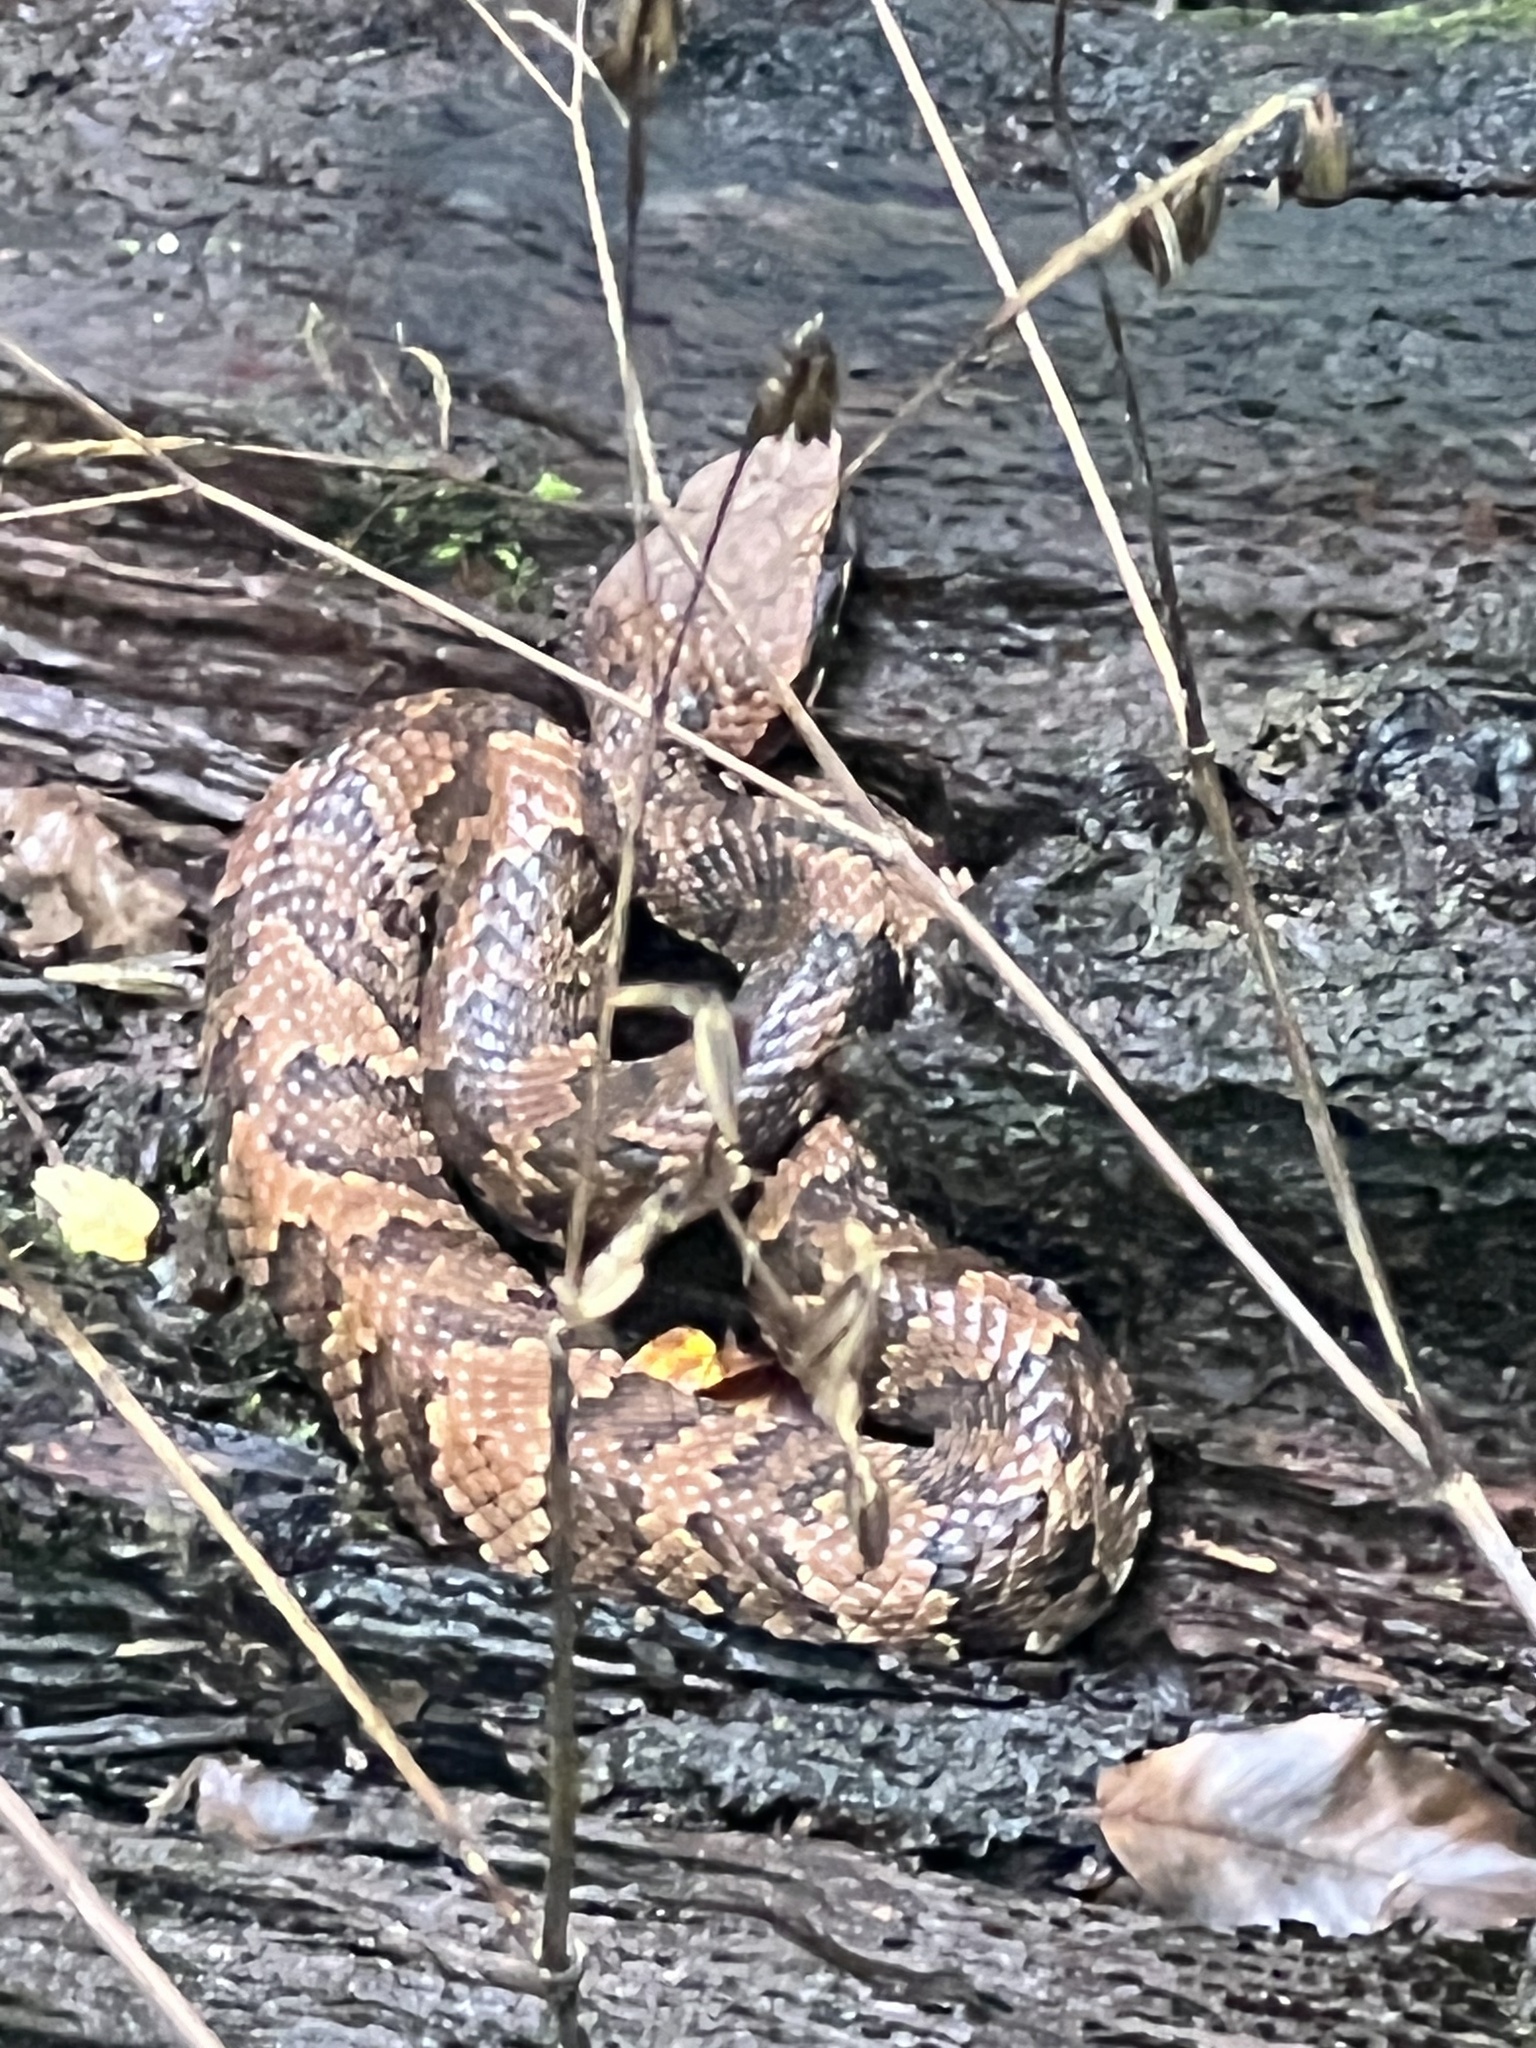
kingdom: Animalia
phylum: Chordata
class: Squamata
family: Viperidae
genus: Agkistrodon
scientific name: Agkistrodon piscivorus
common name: Cottonmouth
